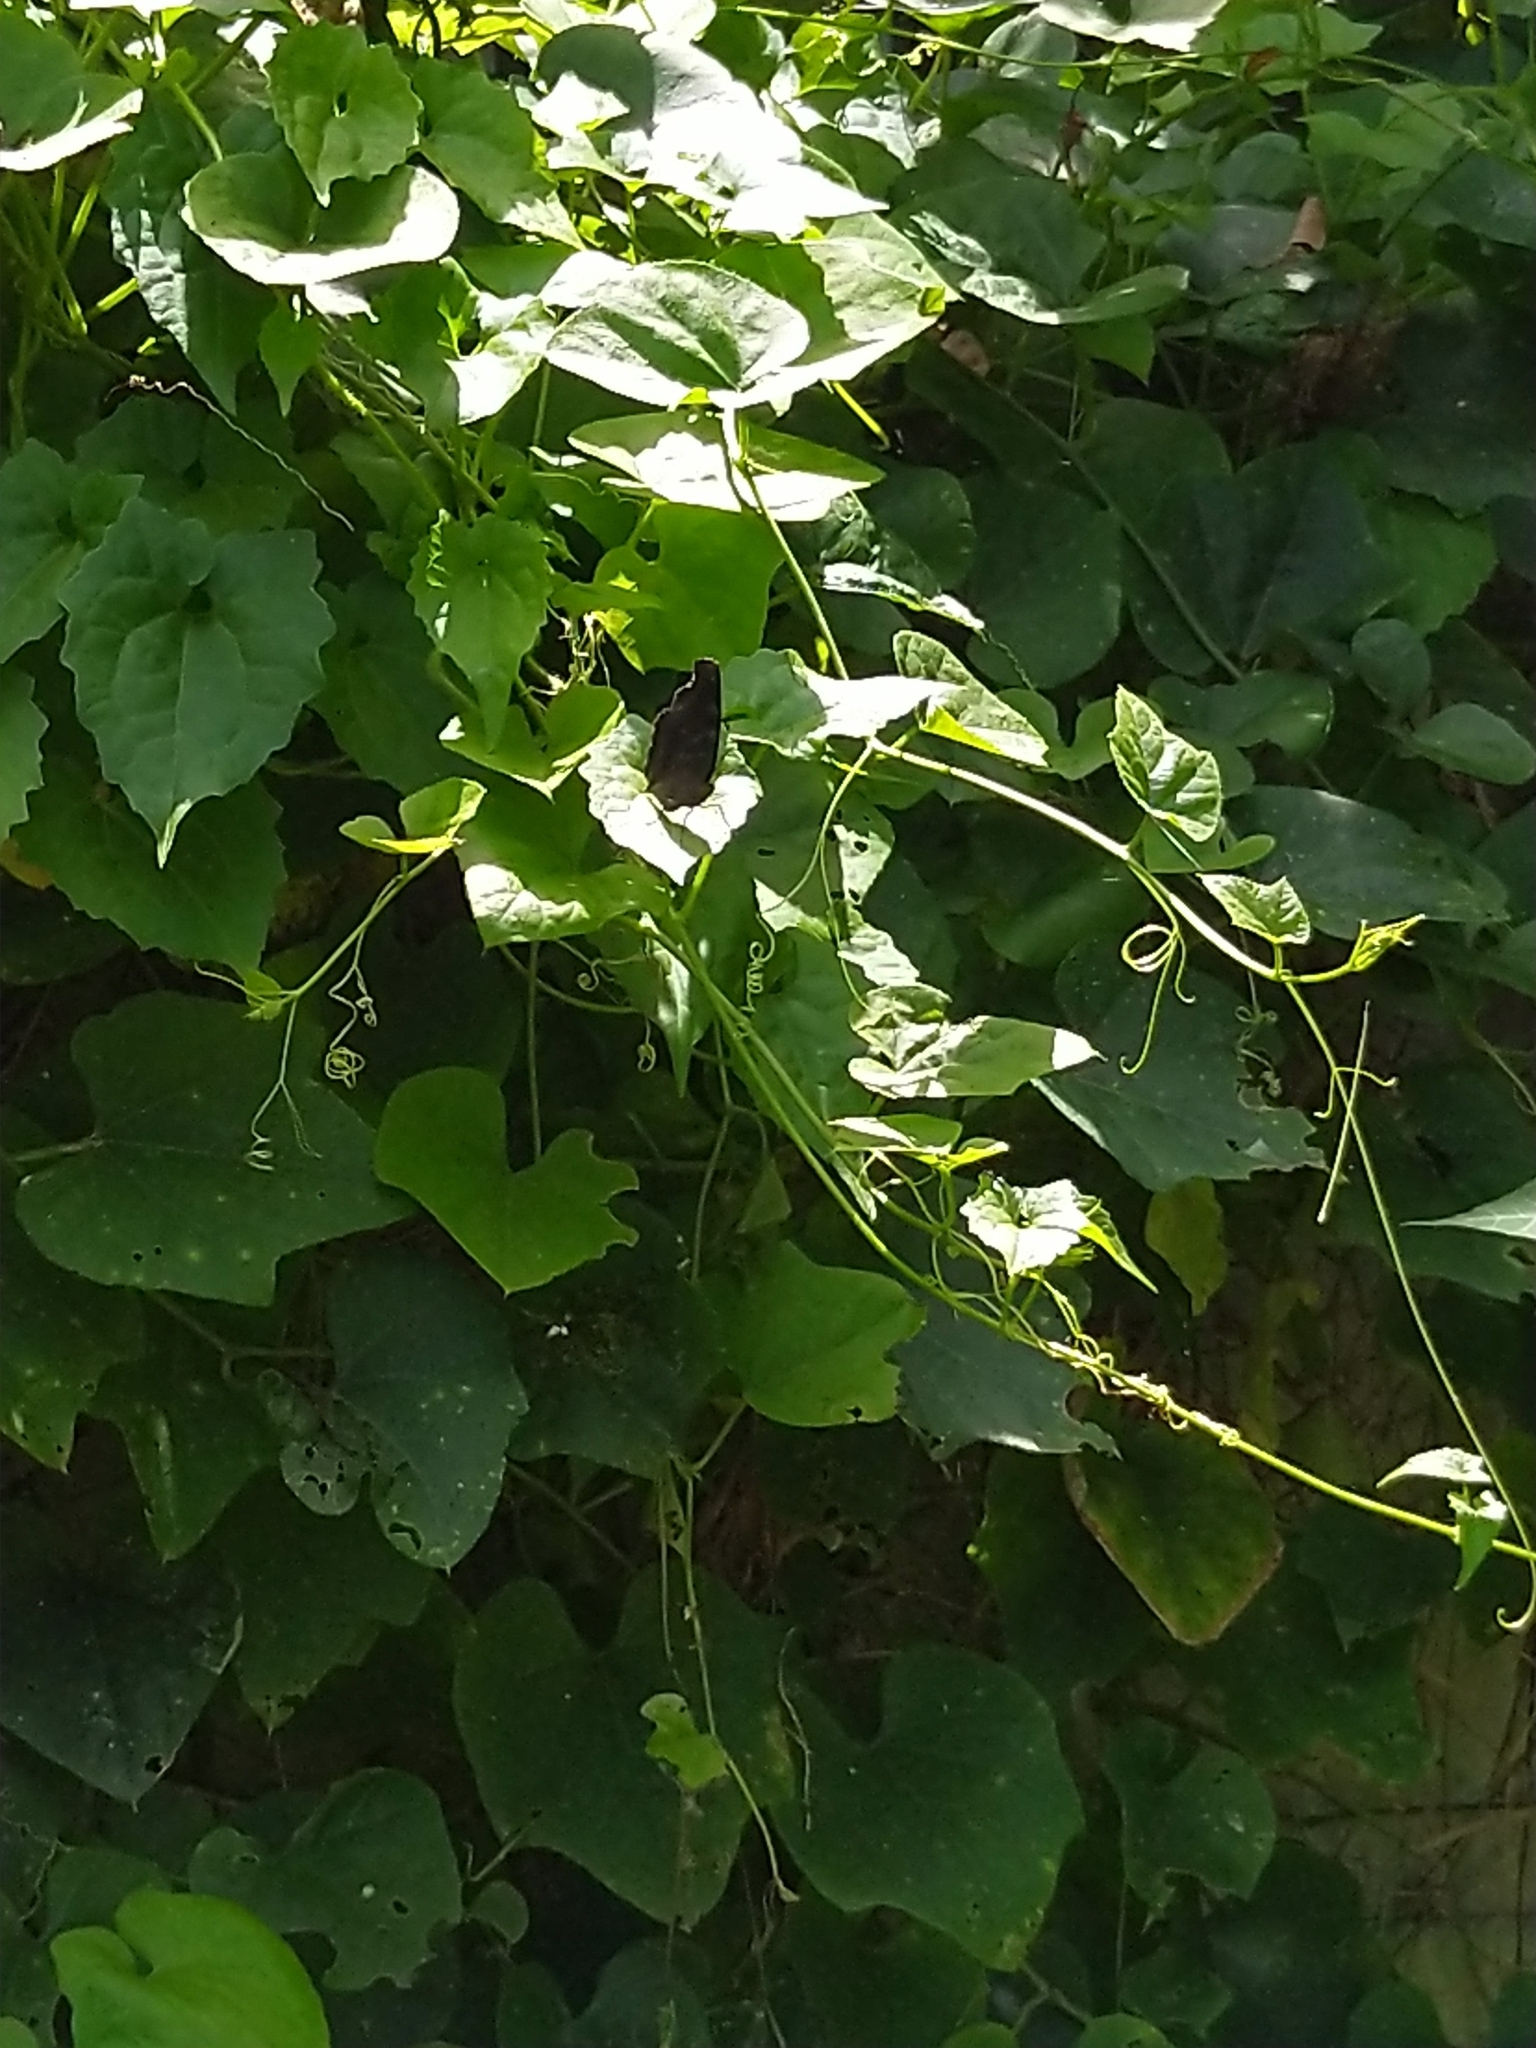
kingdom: Animalia
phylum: Arthropoda
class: Insecta
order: Lepidoptera
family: Nymphalidae
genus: Junonia
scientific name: Junonia iphita
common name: Chocolate pansy
